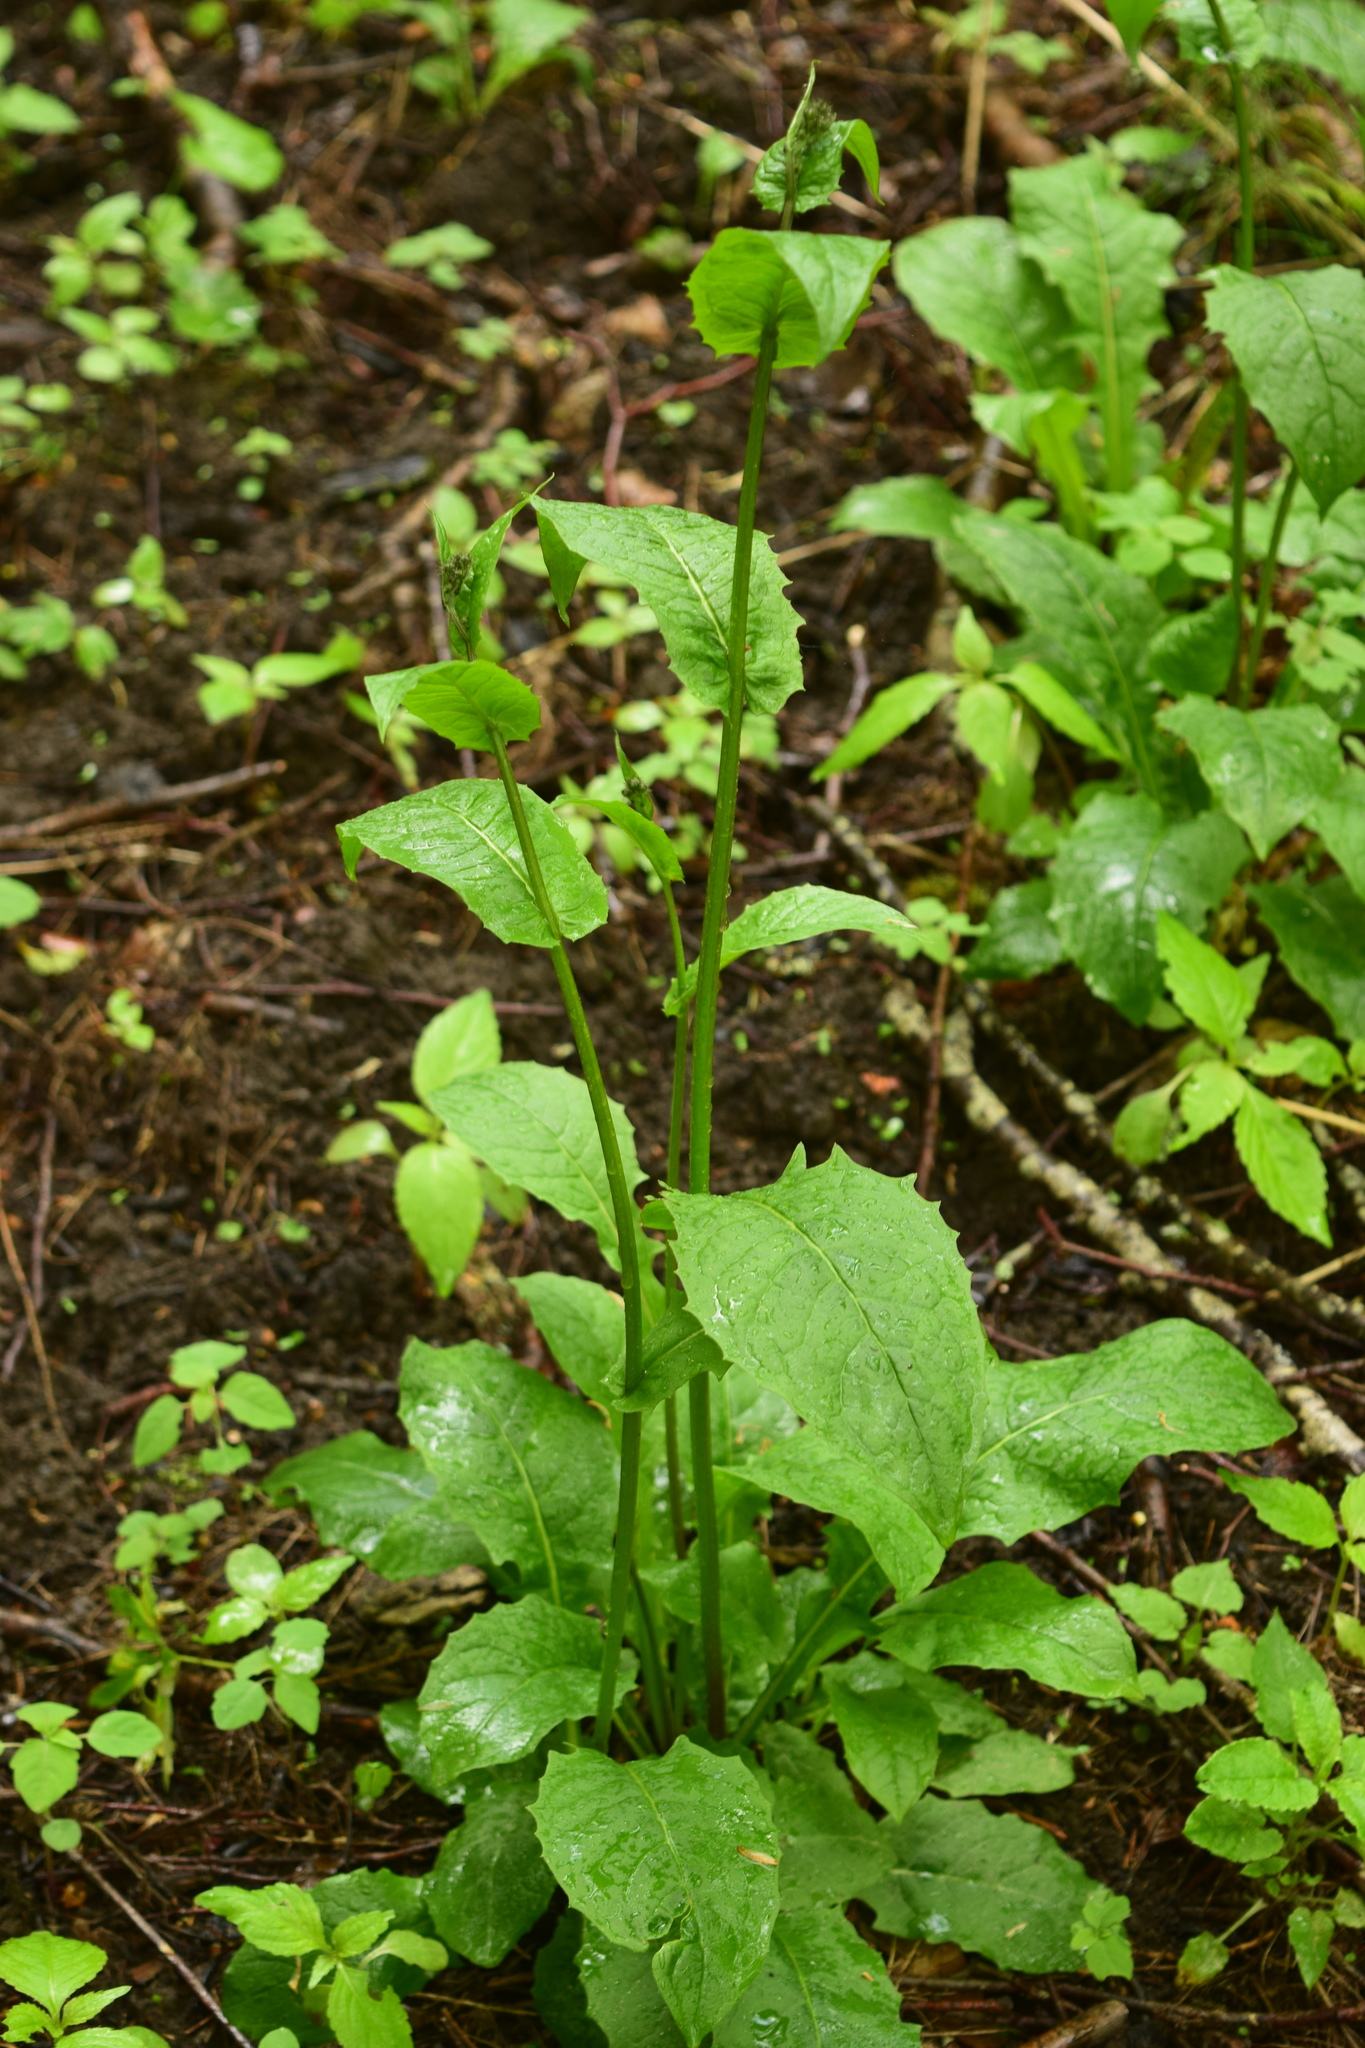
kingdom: Plantae
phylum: Tracheophyta
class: Magnoliopsida
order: Asterales
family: Asteraceae
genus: Crepis
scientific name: Crepis paludosa
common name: Marsh hawk's-beard
